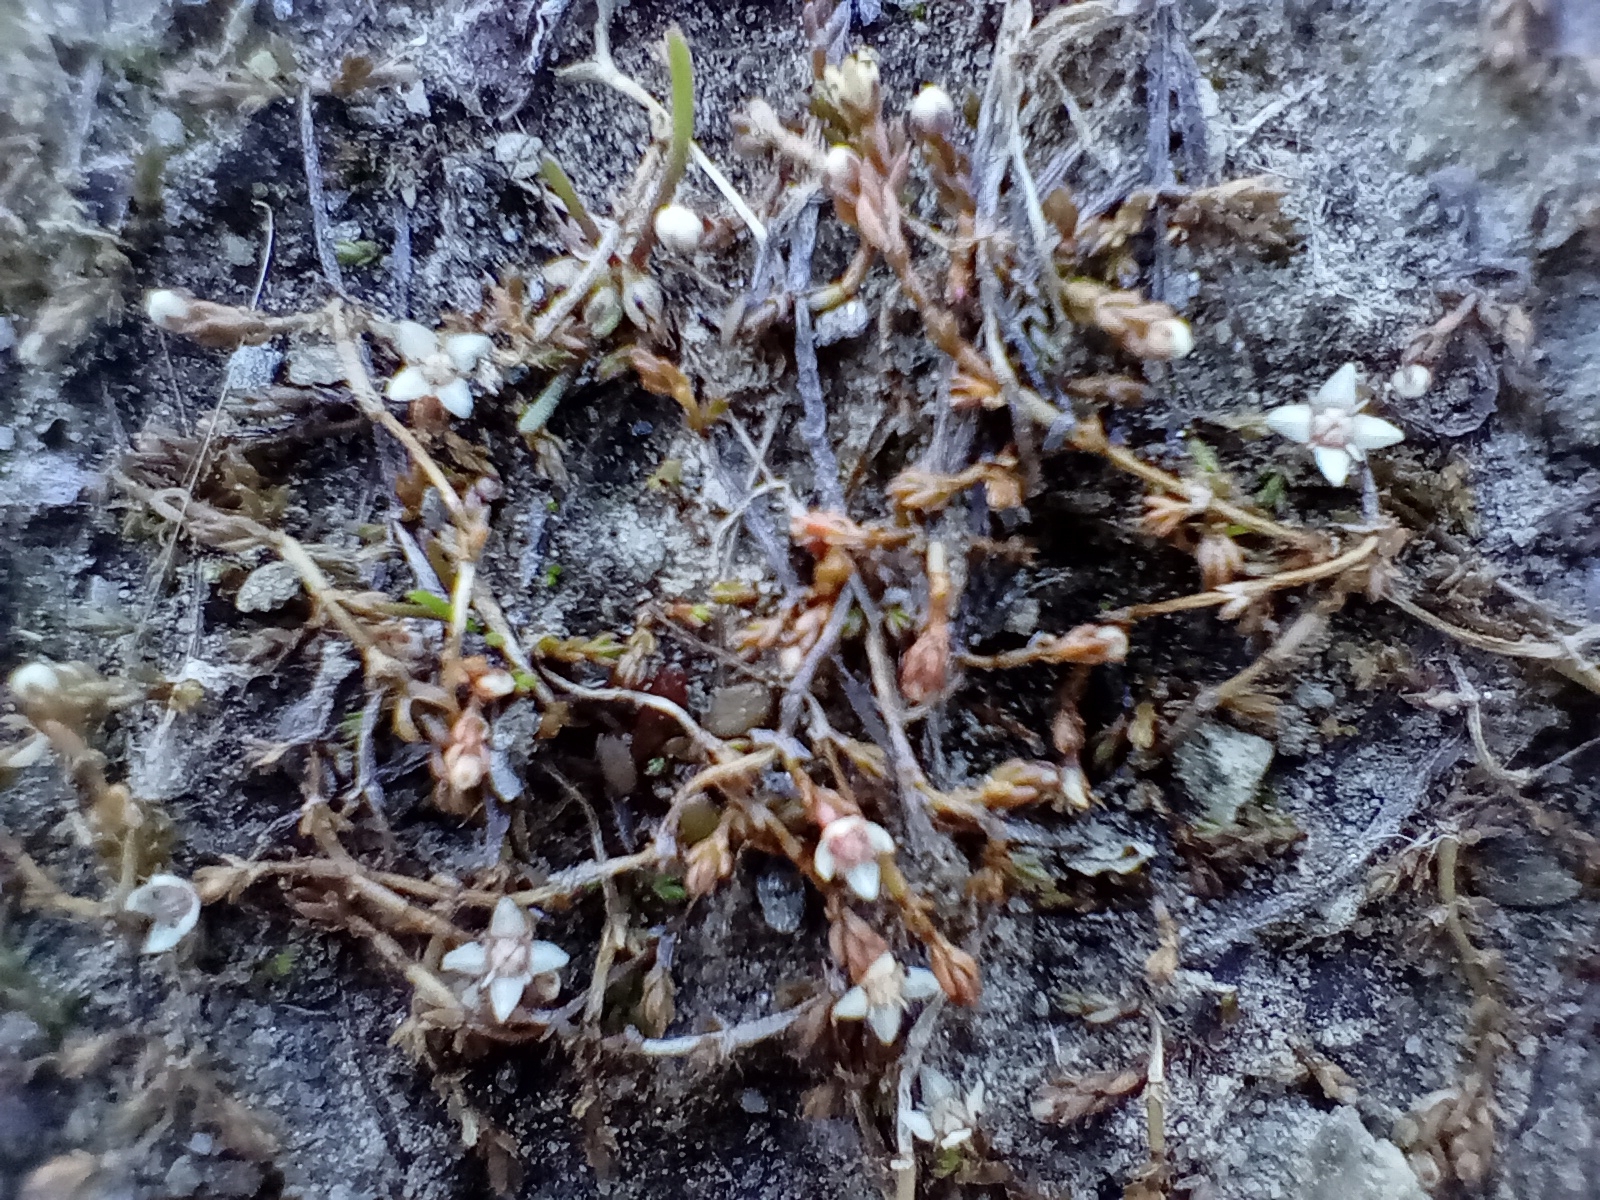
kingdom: Plantae
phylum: Tracheophyta
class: Magnoliopsida
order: Saxifragales
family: Crassulaceae
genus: Crassula
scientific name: Crassula sinclairii
